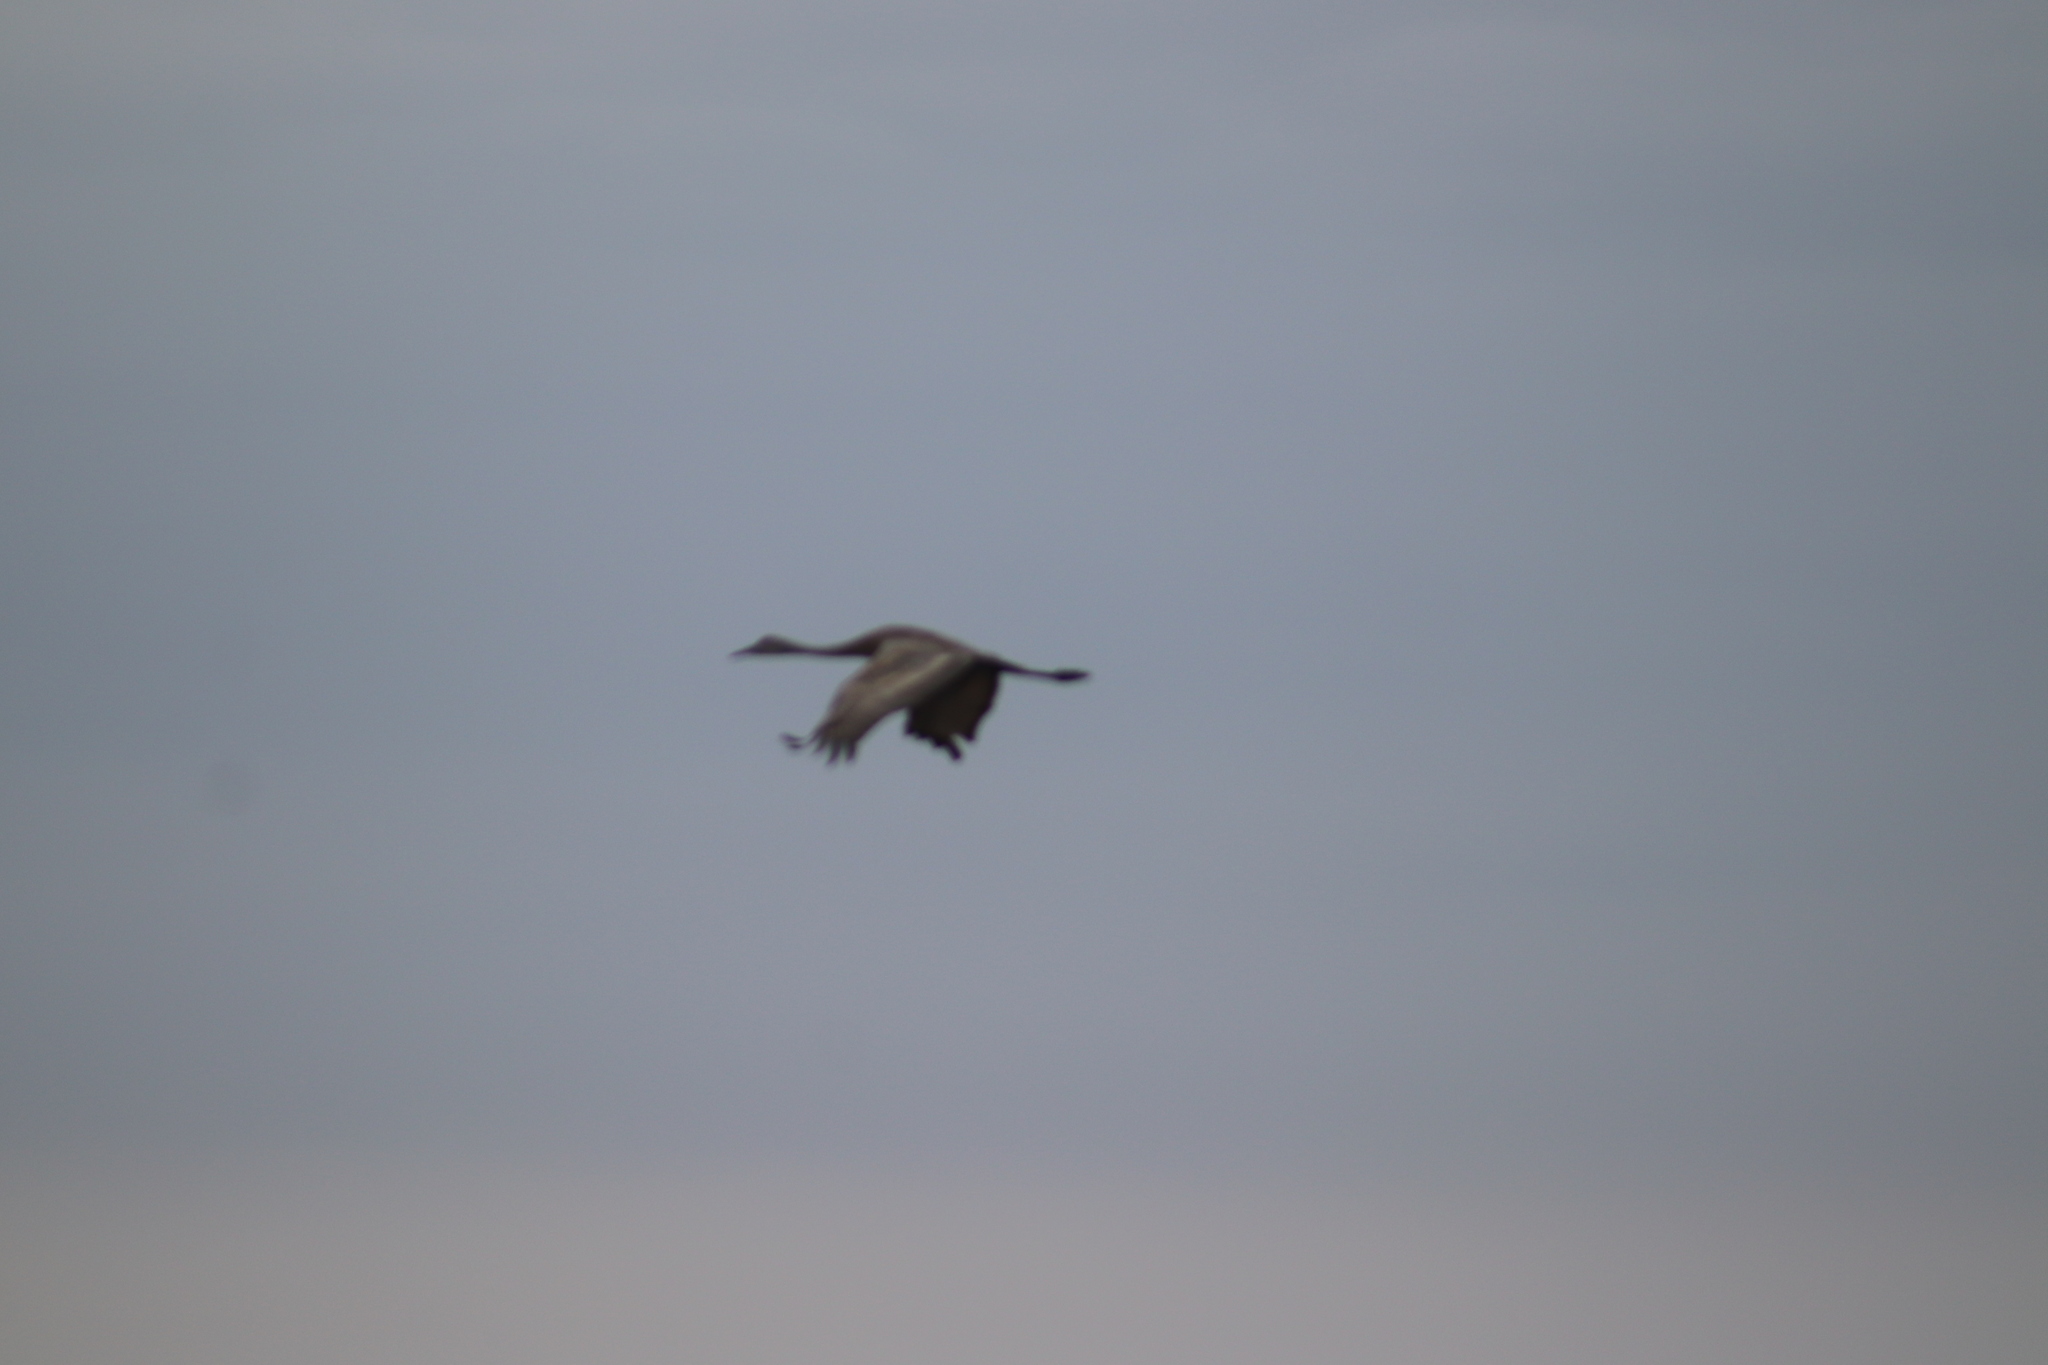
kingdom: Animalia
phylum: Chordata
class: Aves
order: Gruiformes
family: Gruidae
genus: Grus
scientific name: Grus canadensis
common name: Sandhill crane
